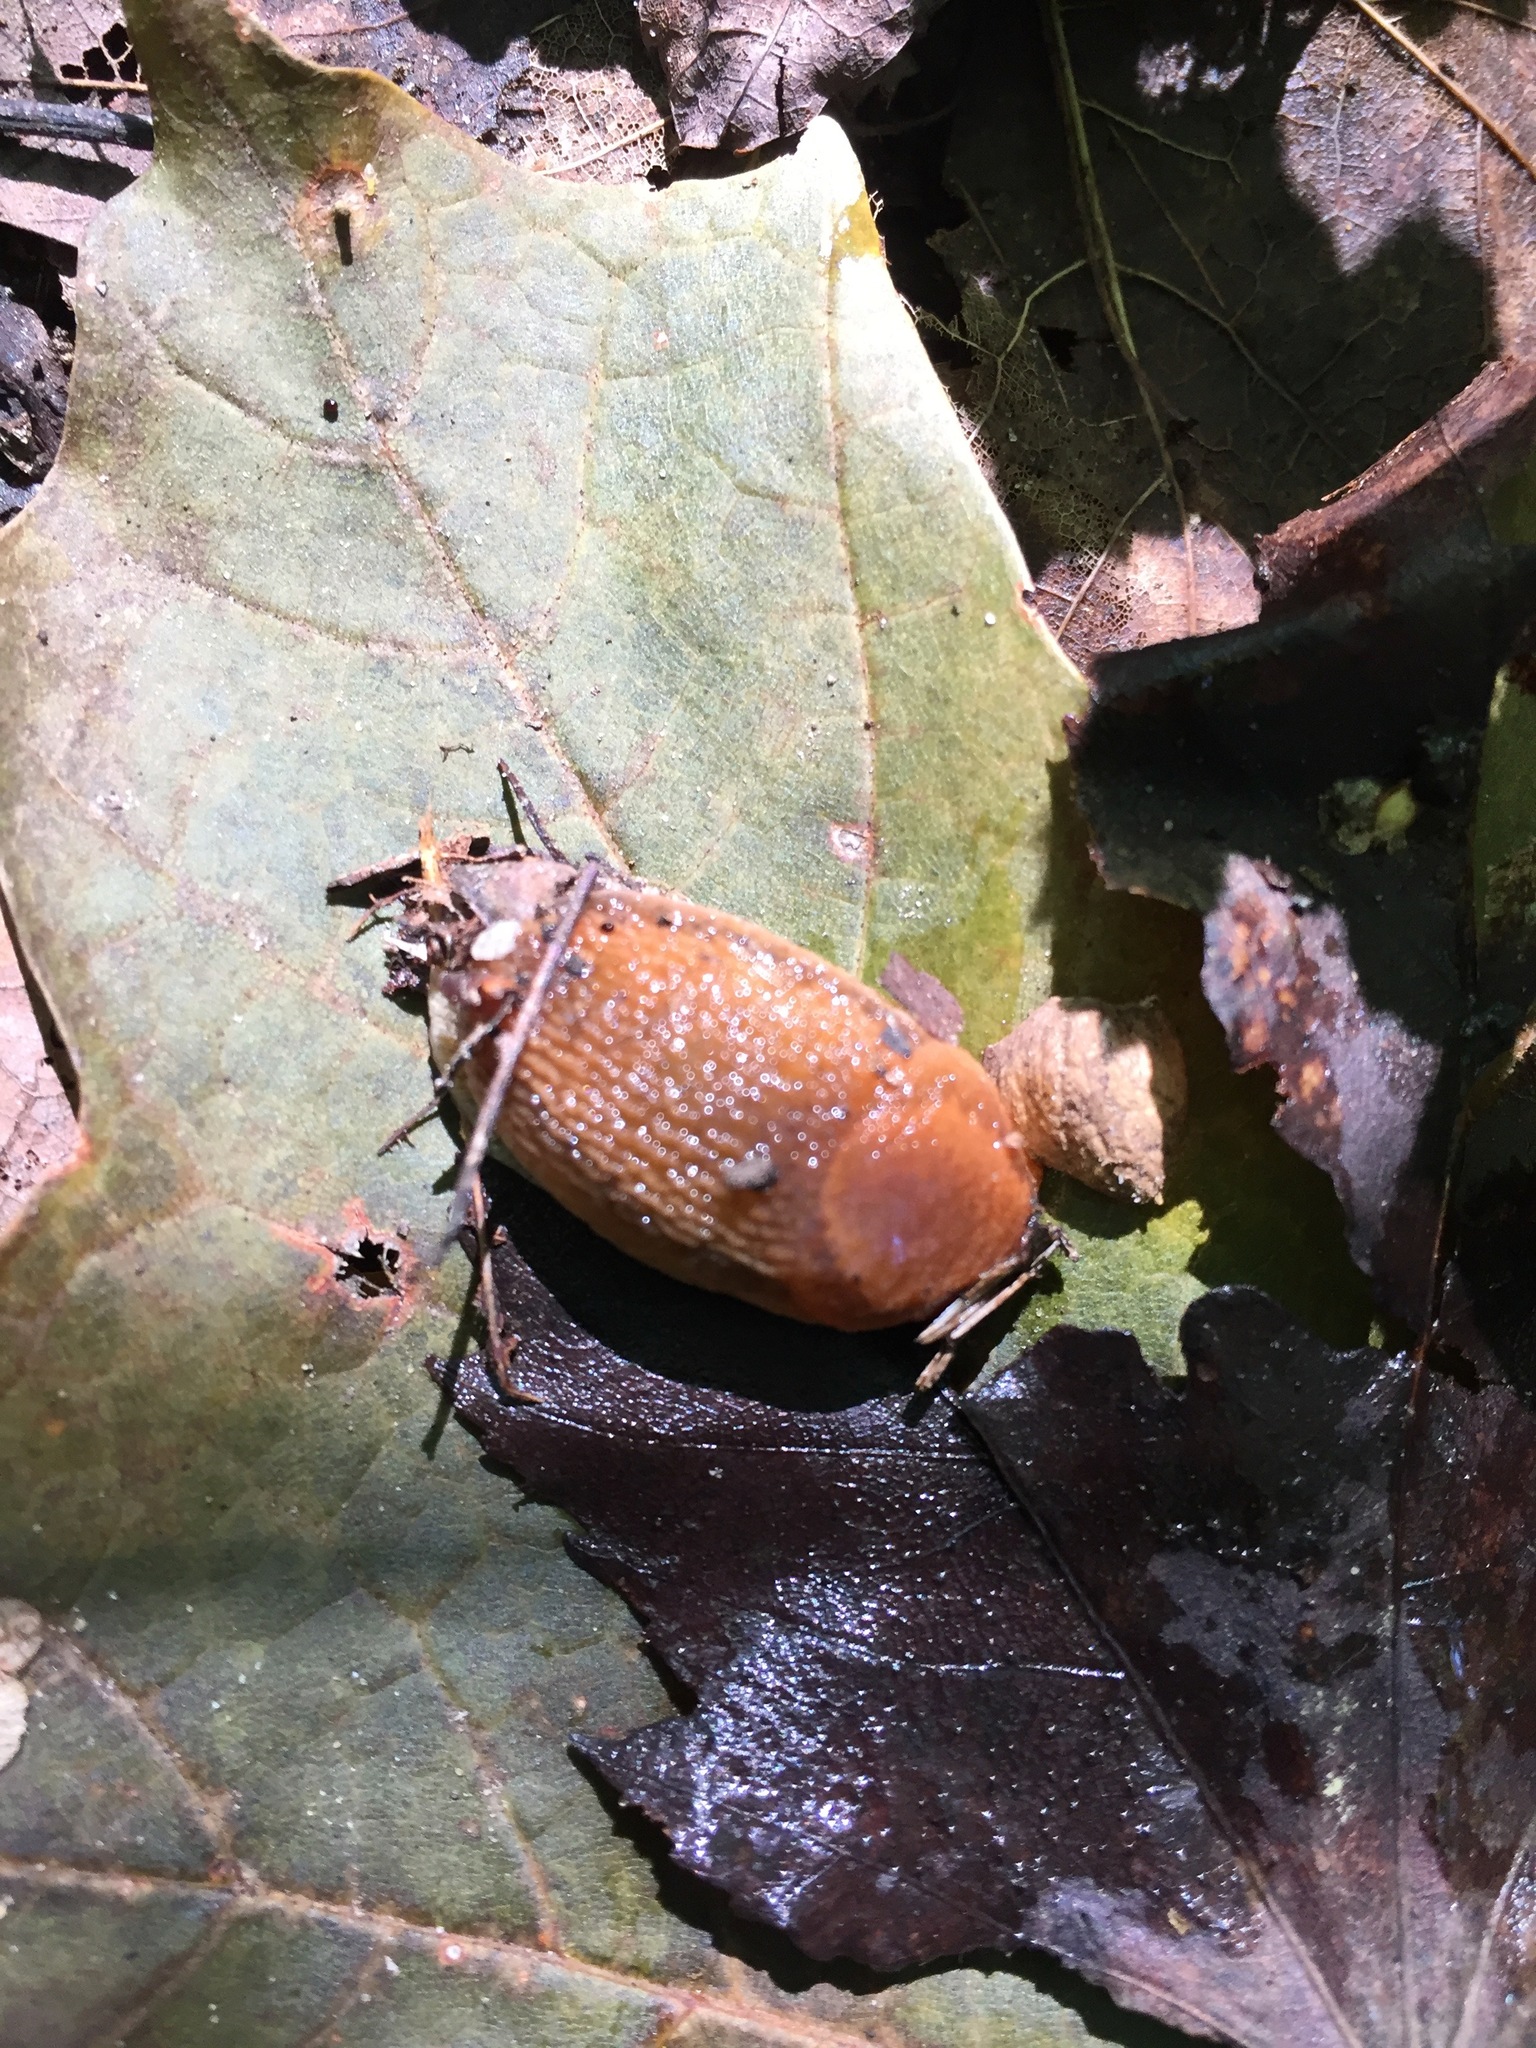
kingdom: Animalia
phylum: Mollusca
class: Gastropoda
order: Stylommatophora
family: Arionidae
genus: Arion
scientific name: Arion subfuscus
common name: Dusky arion
